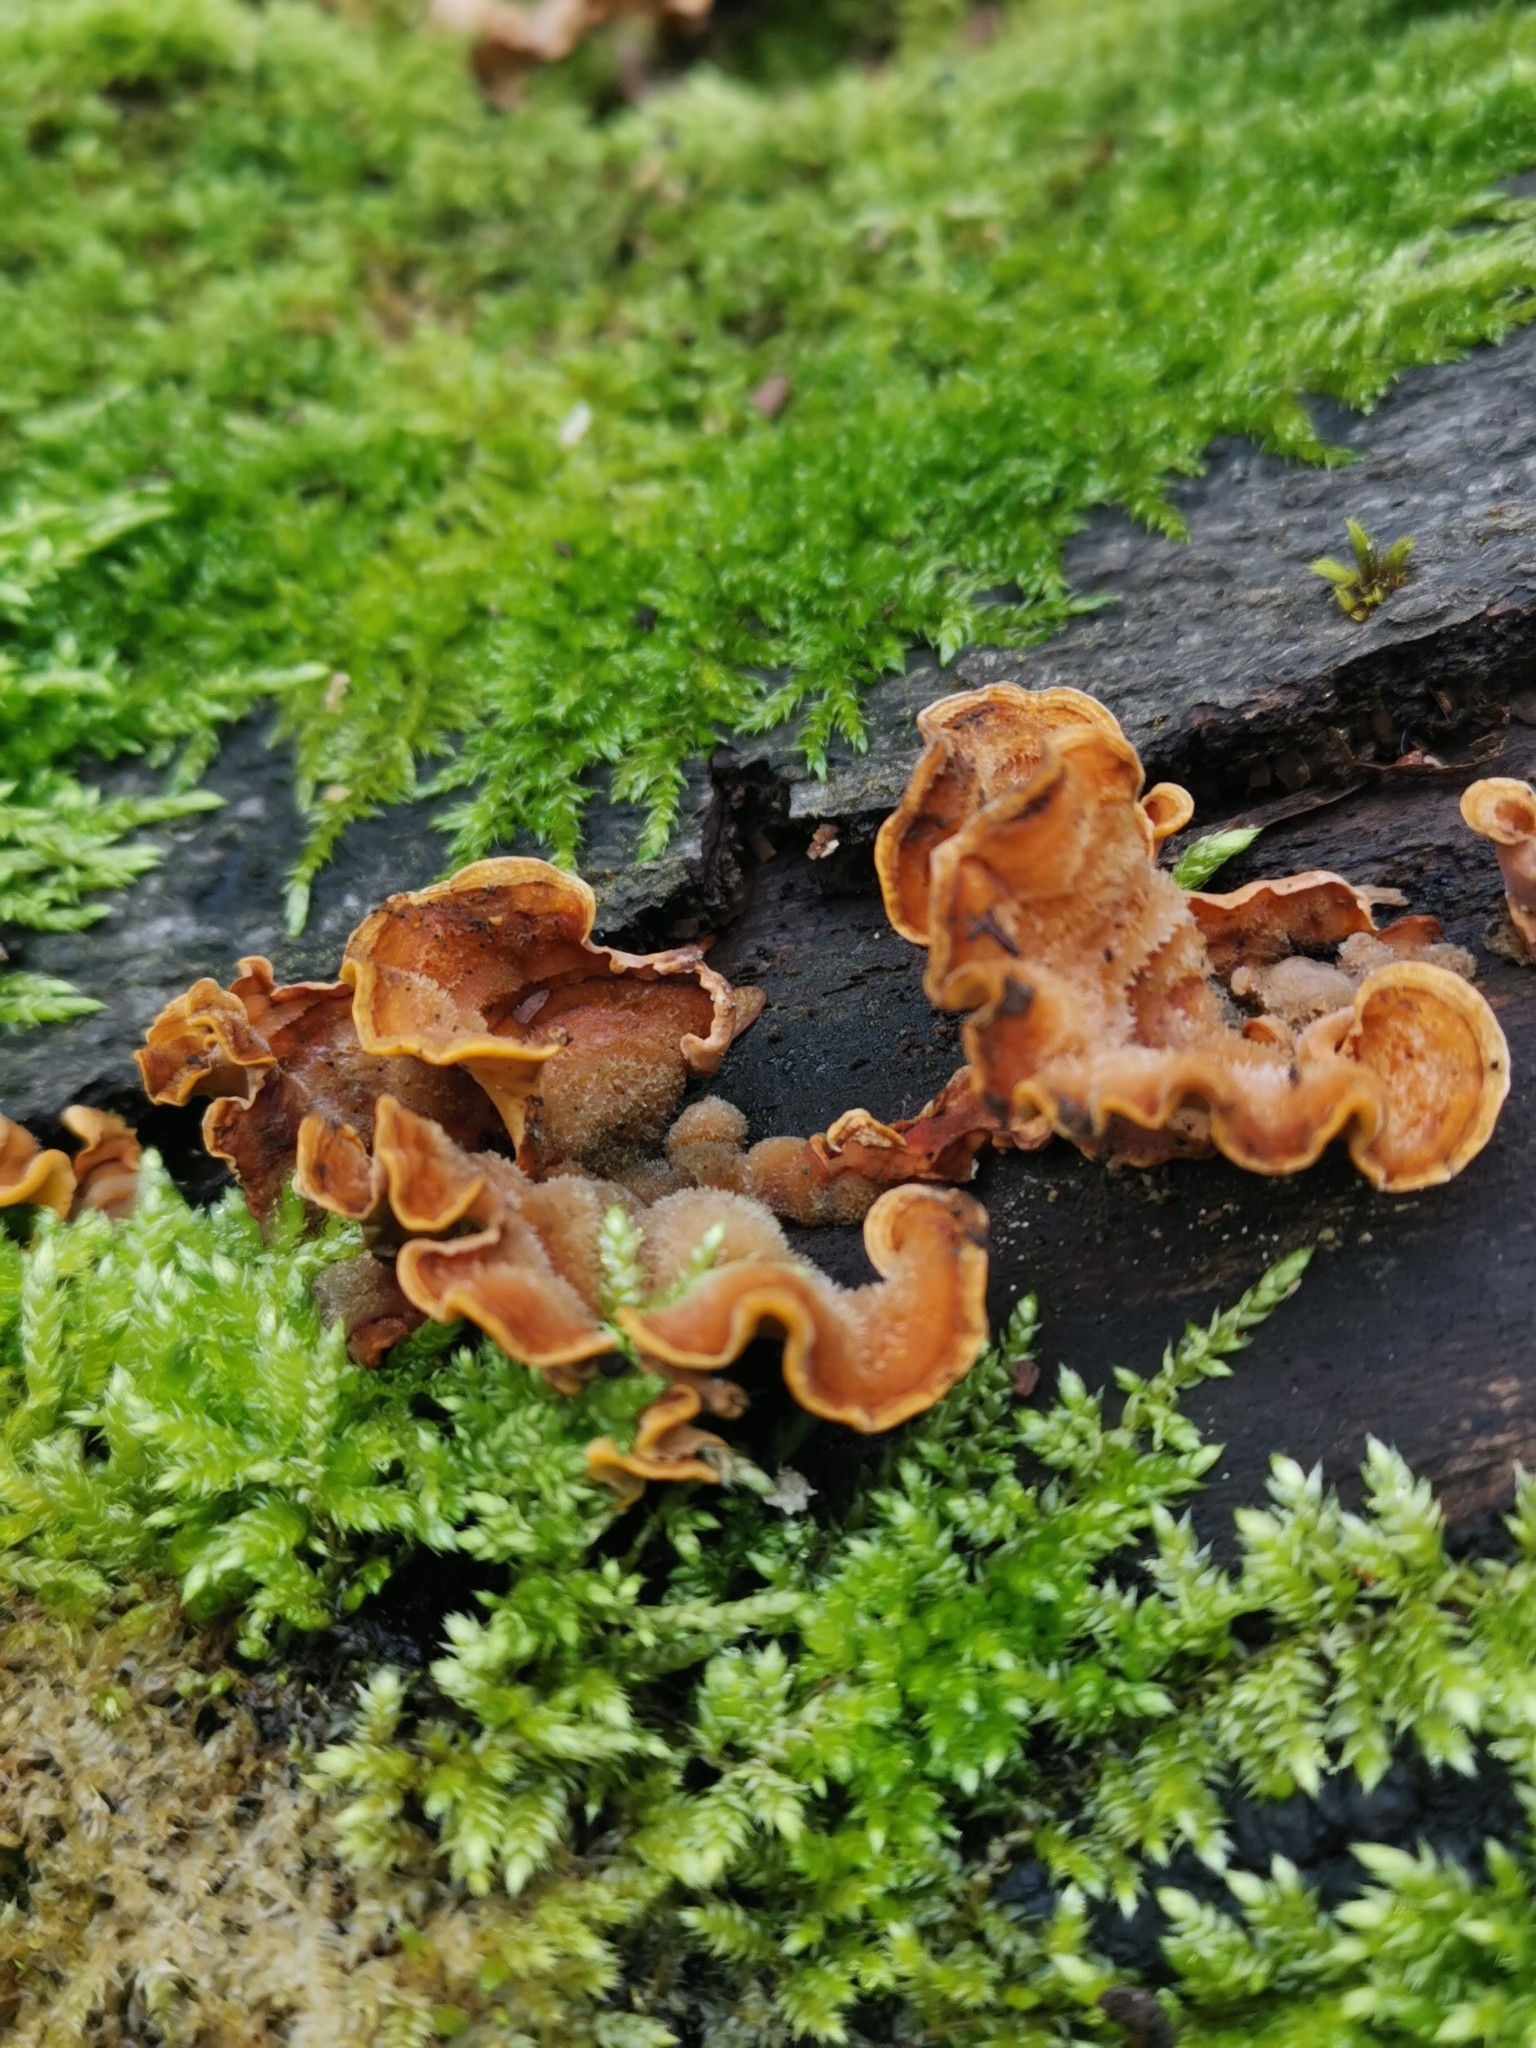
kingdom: Fungi
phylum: Basidiomycota
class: Agaricomycetes
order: Russulales
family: Stereaceae
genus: Stereum
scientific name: Stereum hirsutum
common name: Hairy curtain crust
